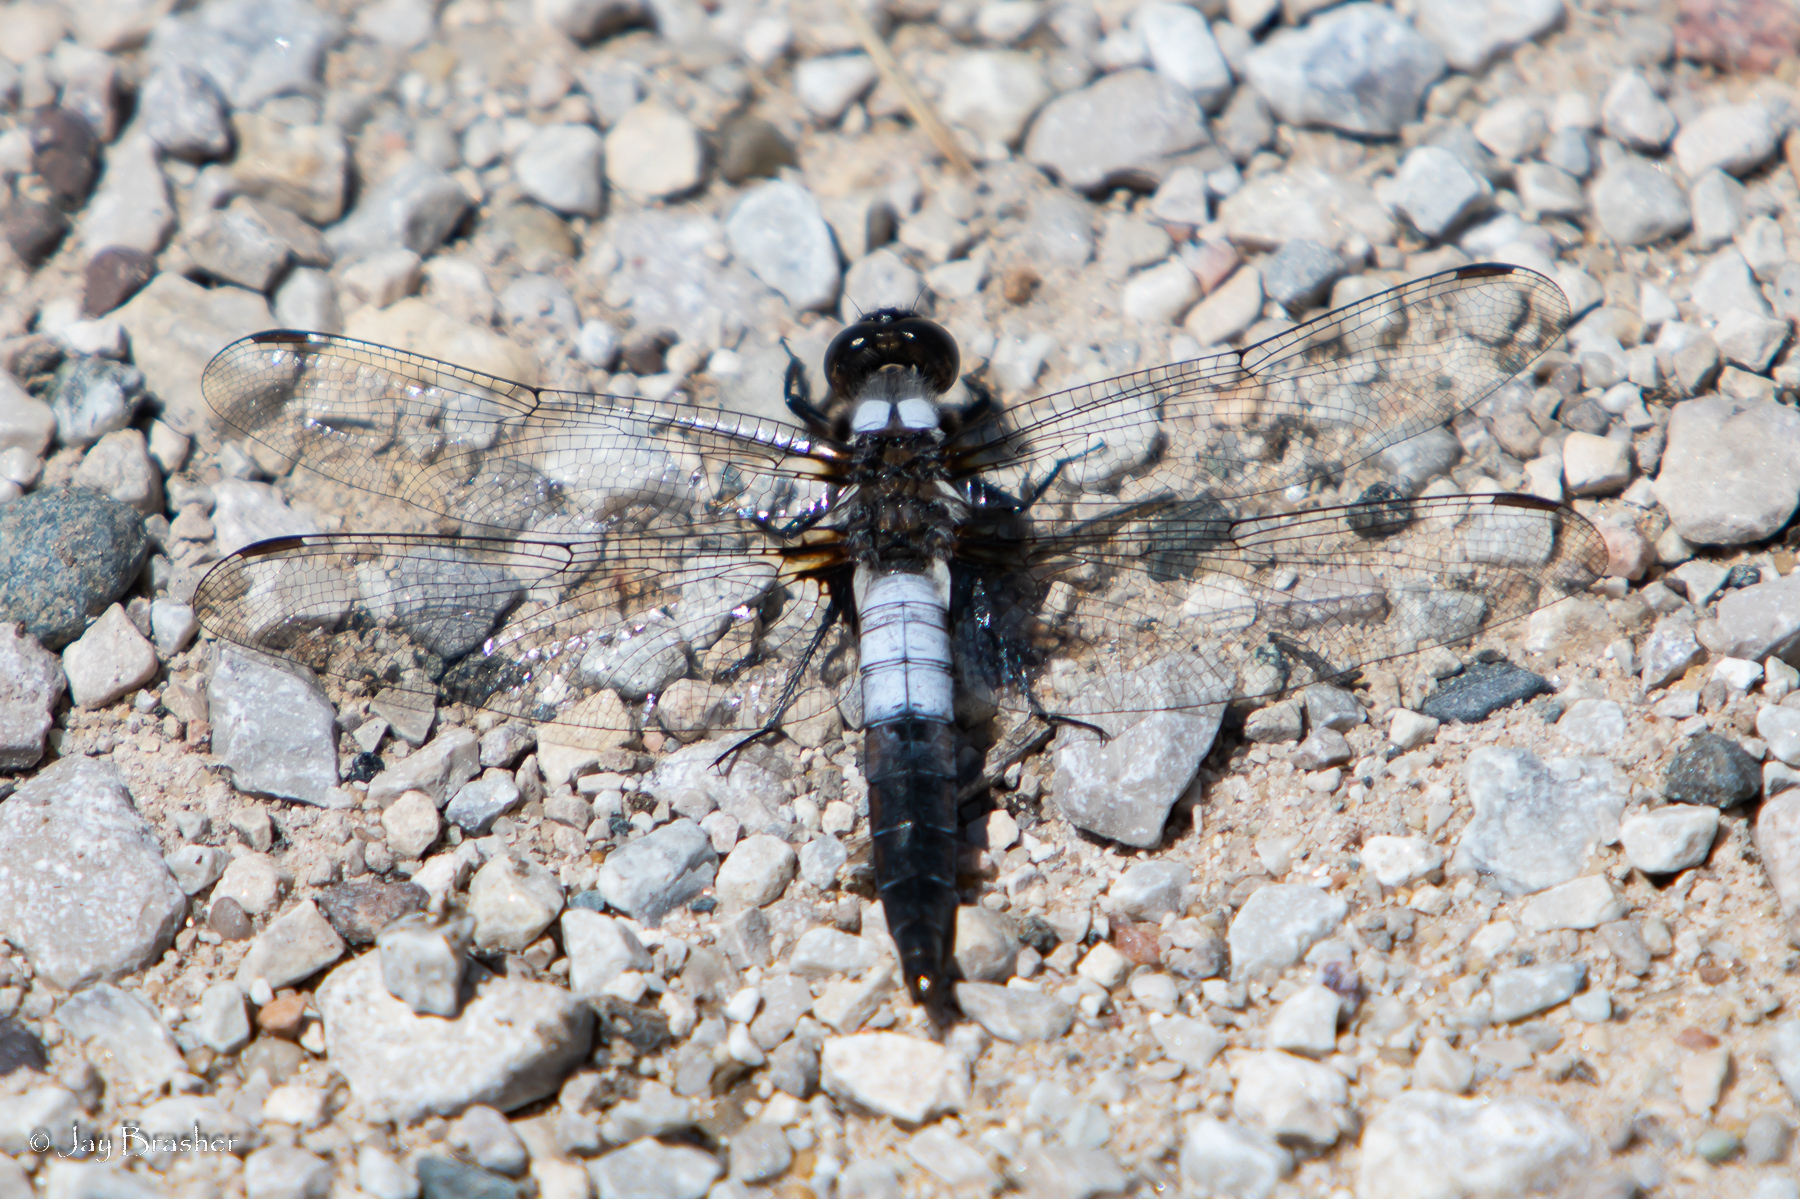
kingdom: Animalia
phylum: Arthropoda
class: Insecta
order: Odonata
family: Libellulidae
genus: Ladona
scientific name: Ladona julia
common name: Chalk-fronted corporal
